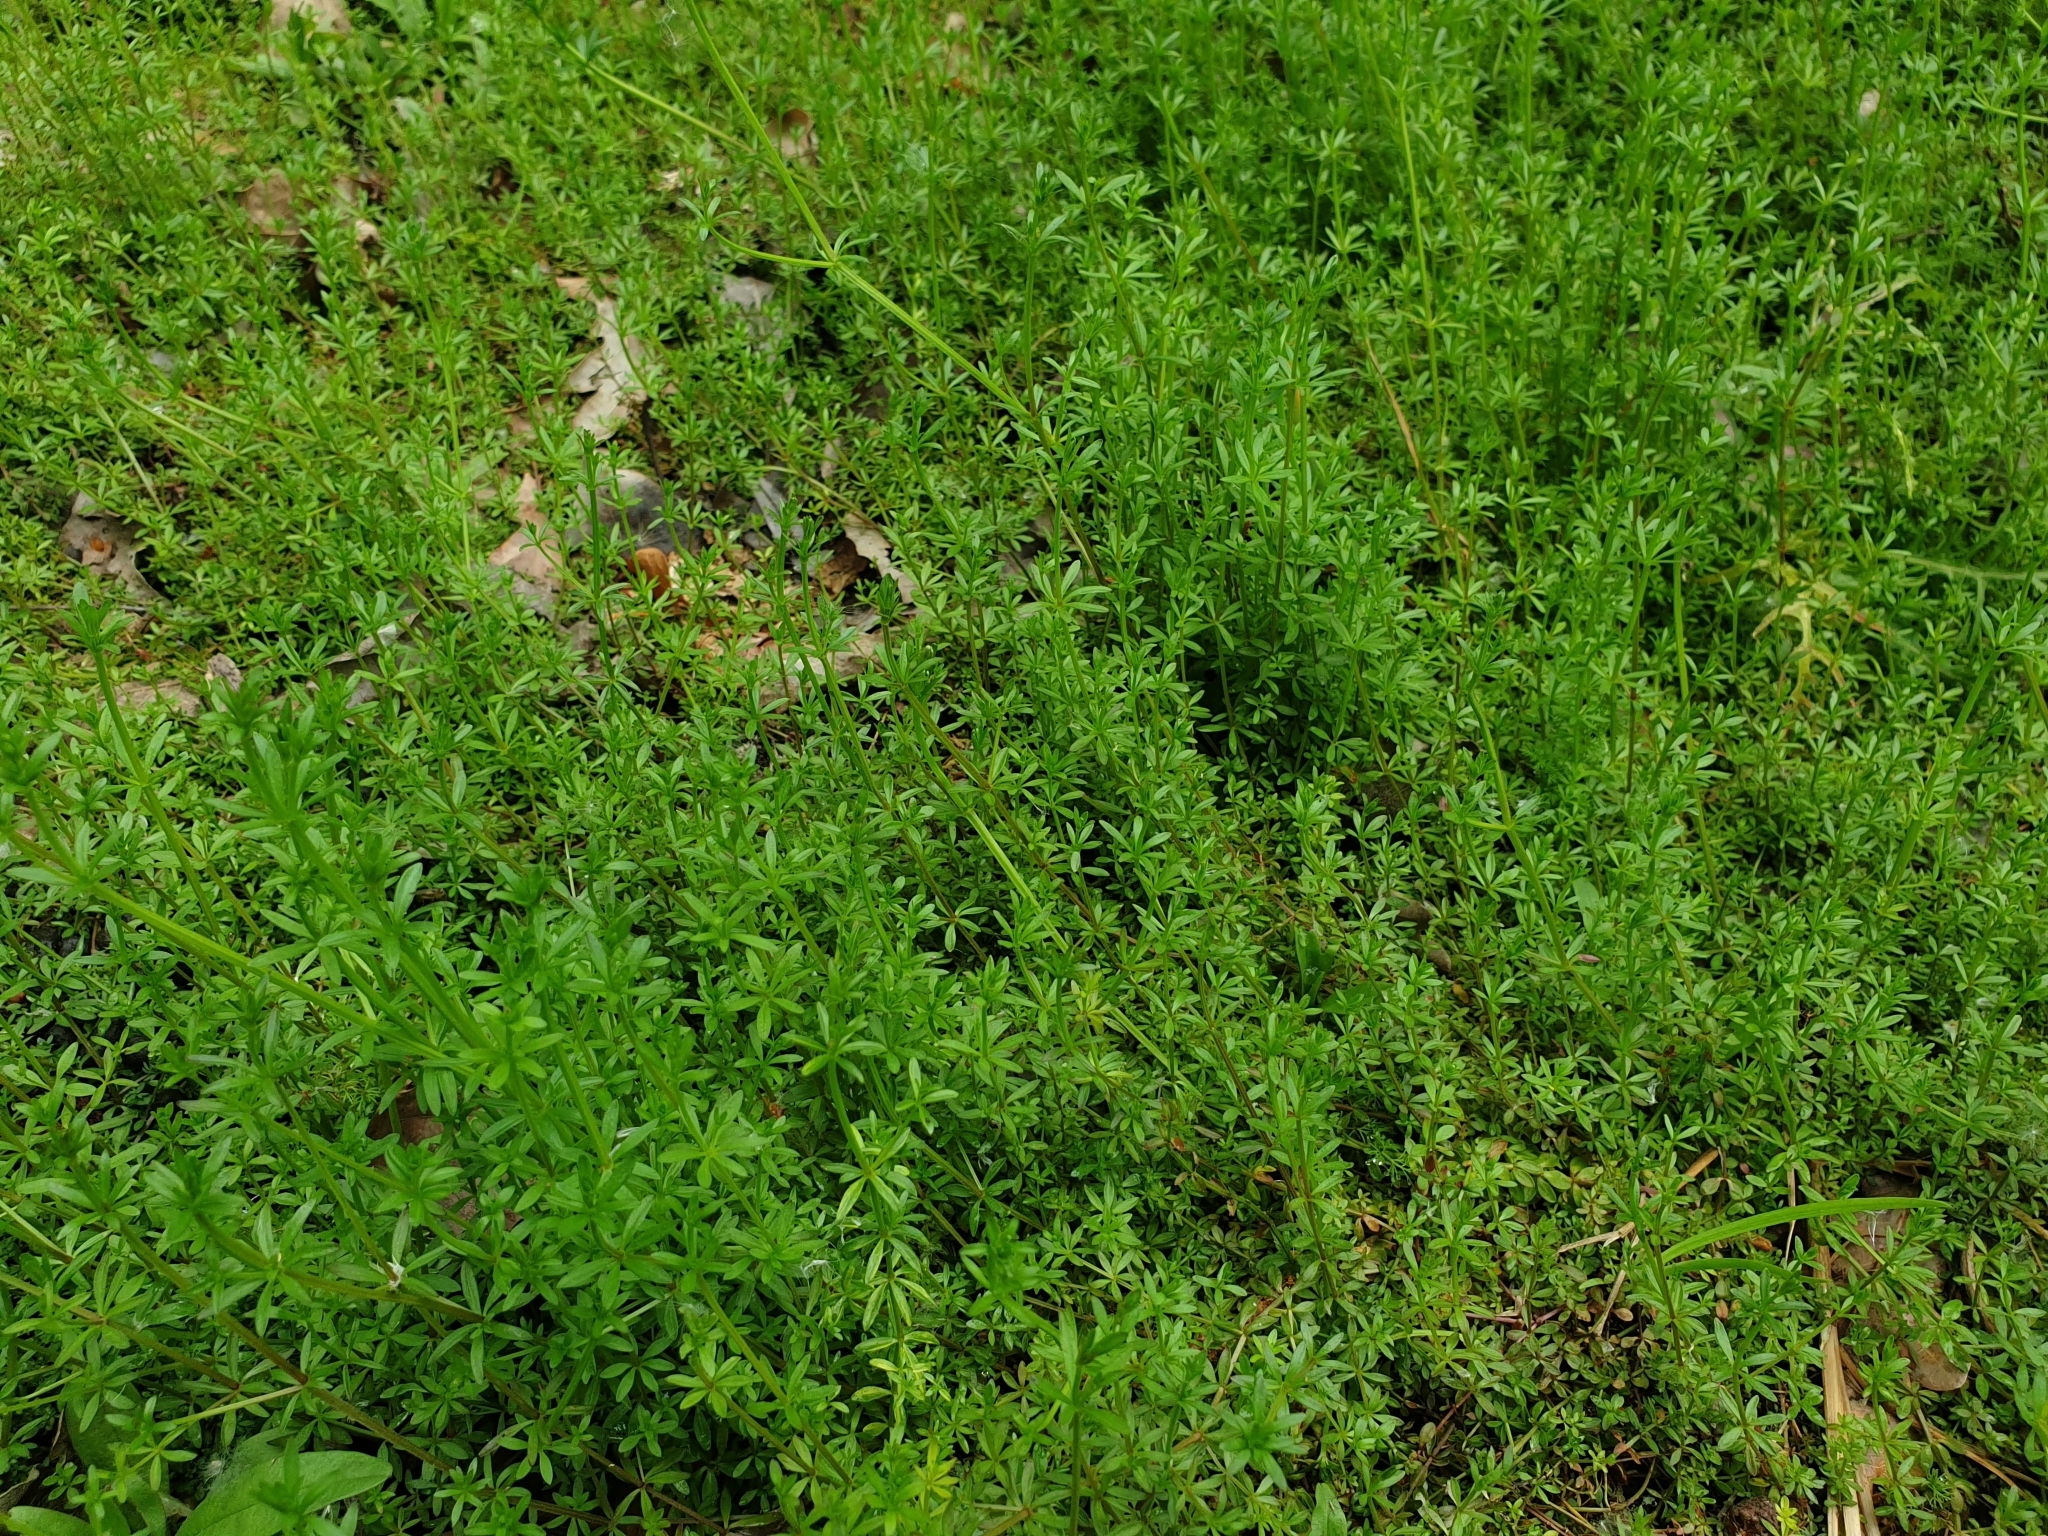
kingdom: Plantae
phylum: Tracheophyta
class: Magnoliopsida
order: Gentianales
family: Rubiaceae
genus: Galium
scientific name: Galium palustre
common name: Common marsh-bedstraw
